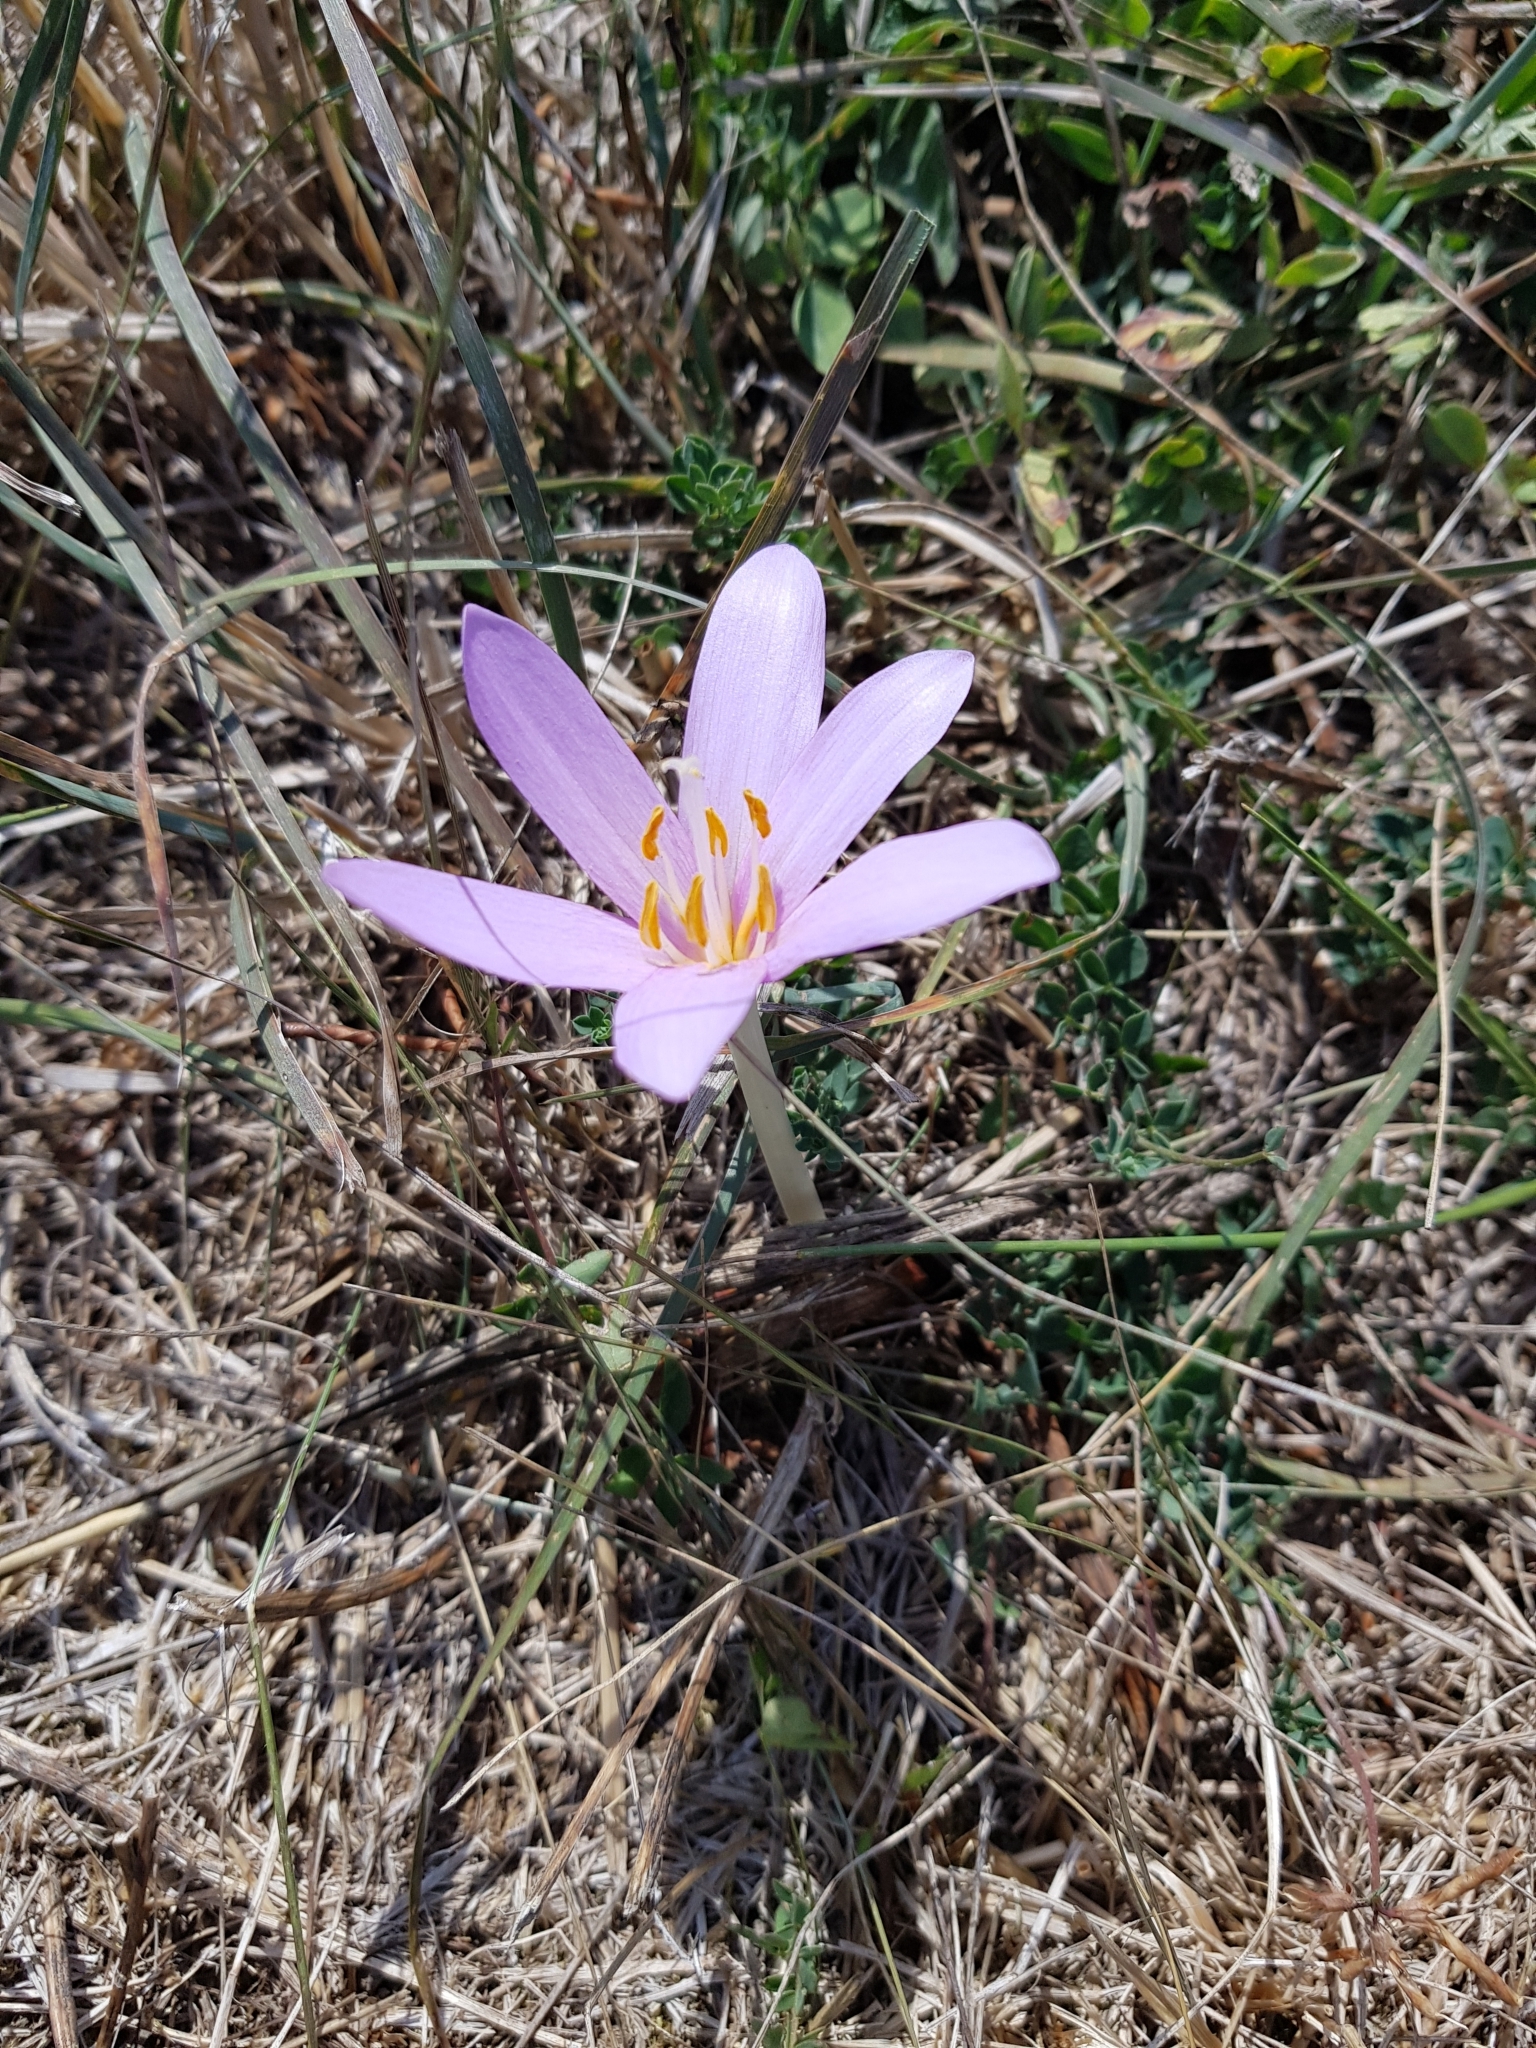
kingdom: Plantae
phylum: Tracheophyta
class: Liliopsida
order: Liliales
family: Colchicaceae
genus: Colchicum
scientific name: Colchicum autumnale
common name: Autumn crocus
